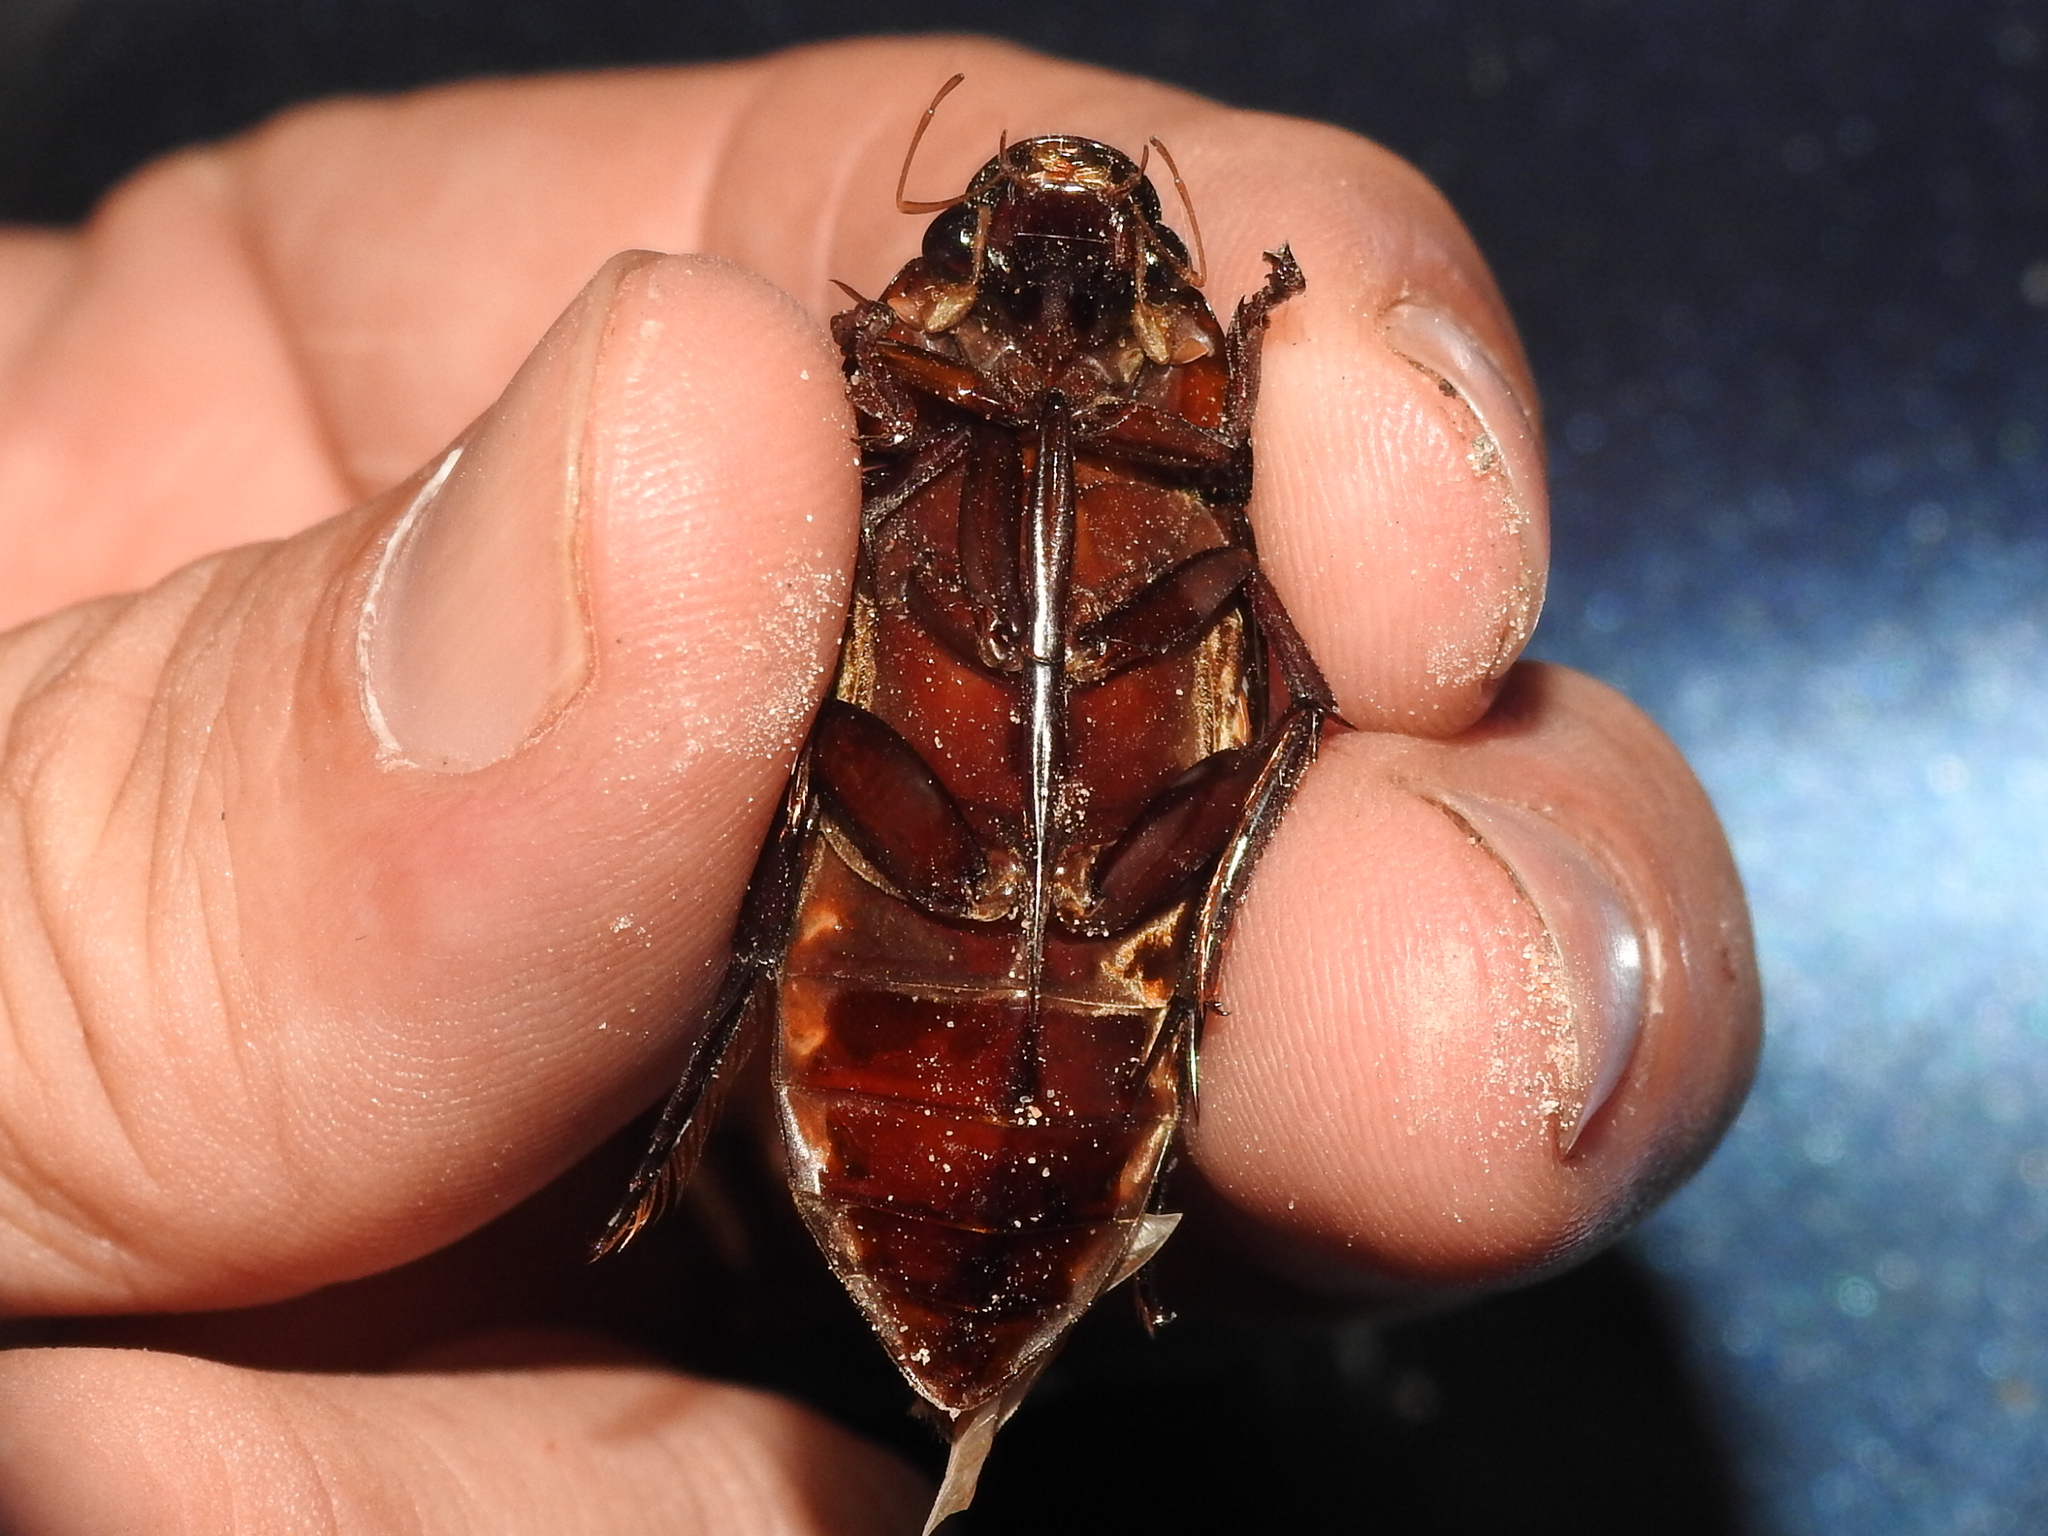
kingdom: Animalia
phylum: Arthropoda
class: Insecta
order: Coleoptera
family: Hydrophilidae
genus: Hydrophilus
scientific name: Hydrophilus insularis
